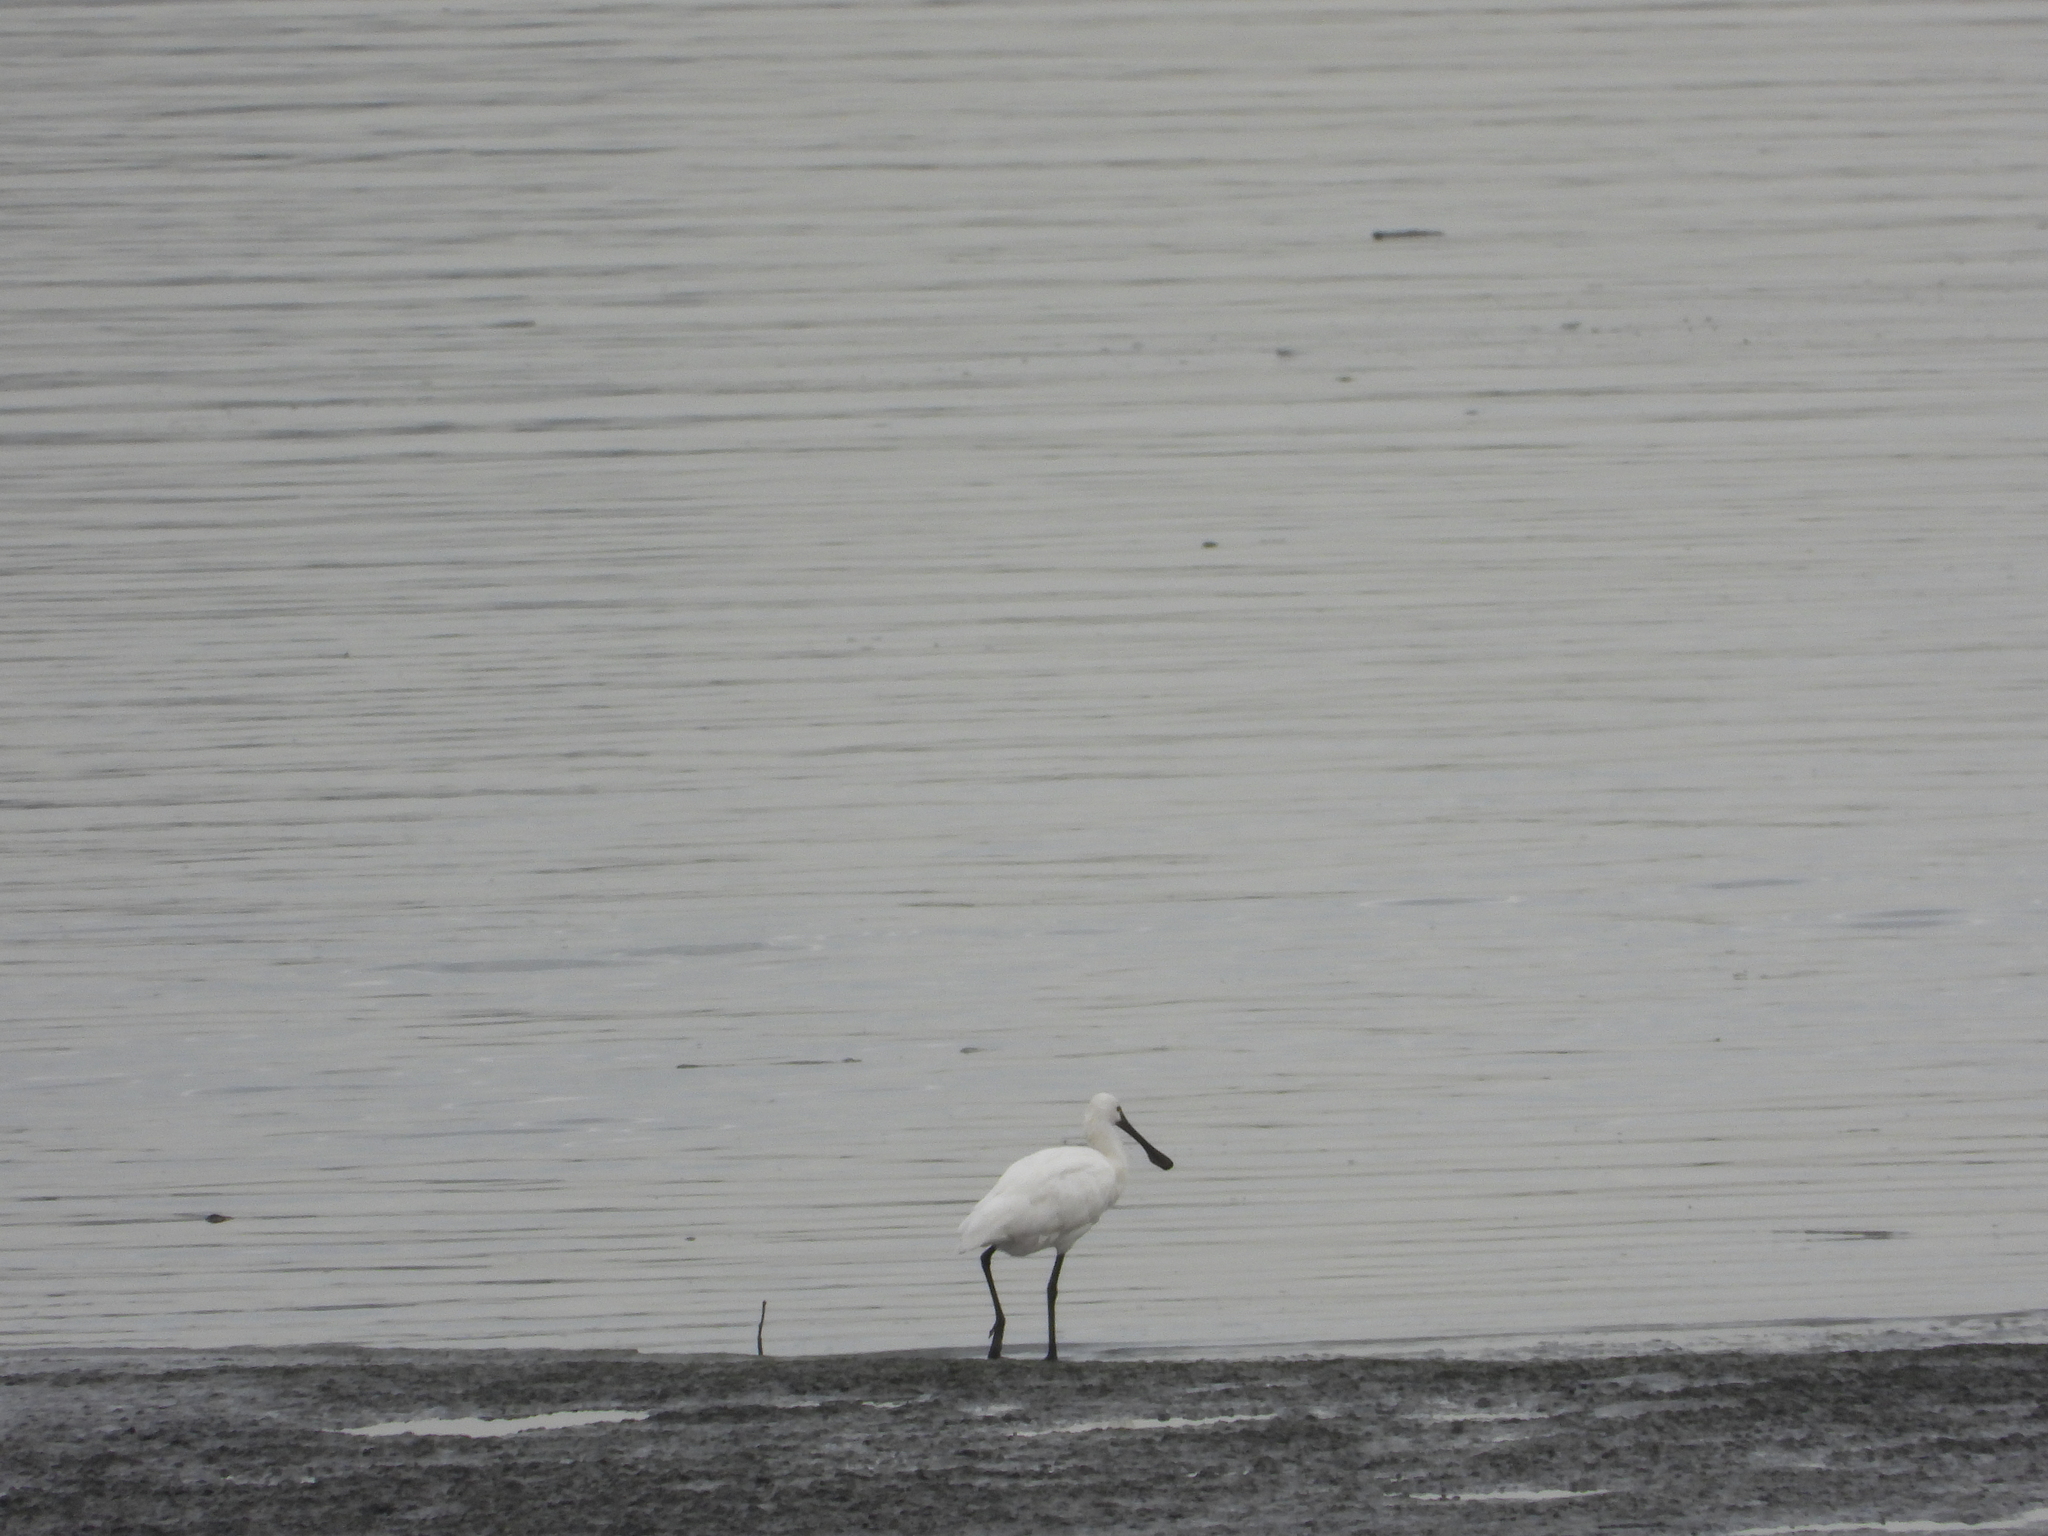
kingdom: Animalia
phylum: Chordata
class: Aves
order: Pelecaniformes
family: Threskiornithidae
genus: Platalea
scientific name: Platalea leucorodia
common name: Eurasian spoonbill
